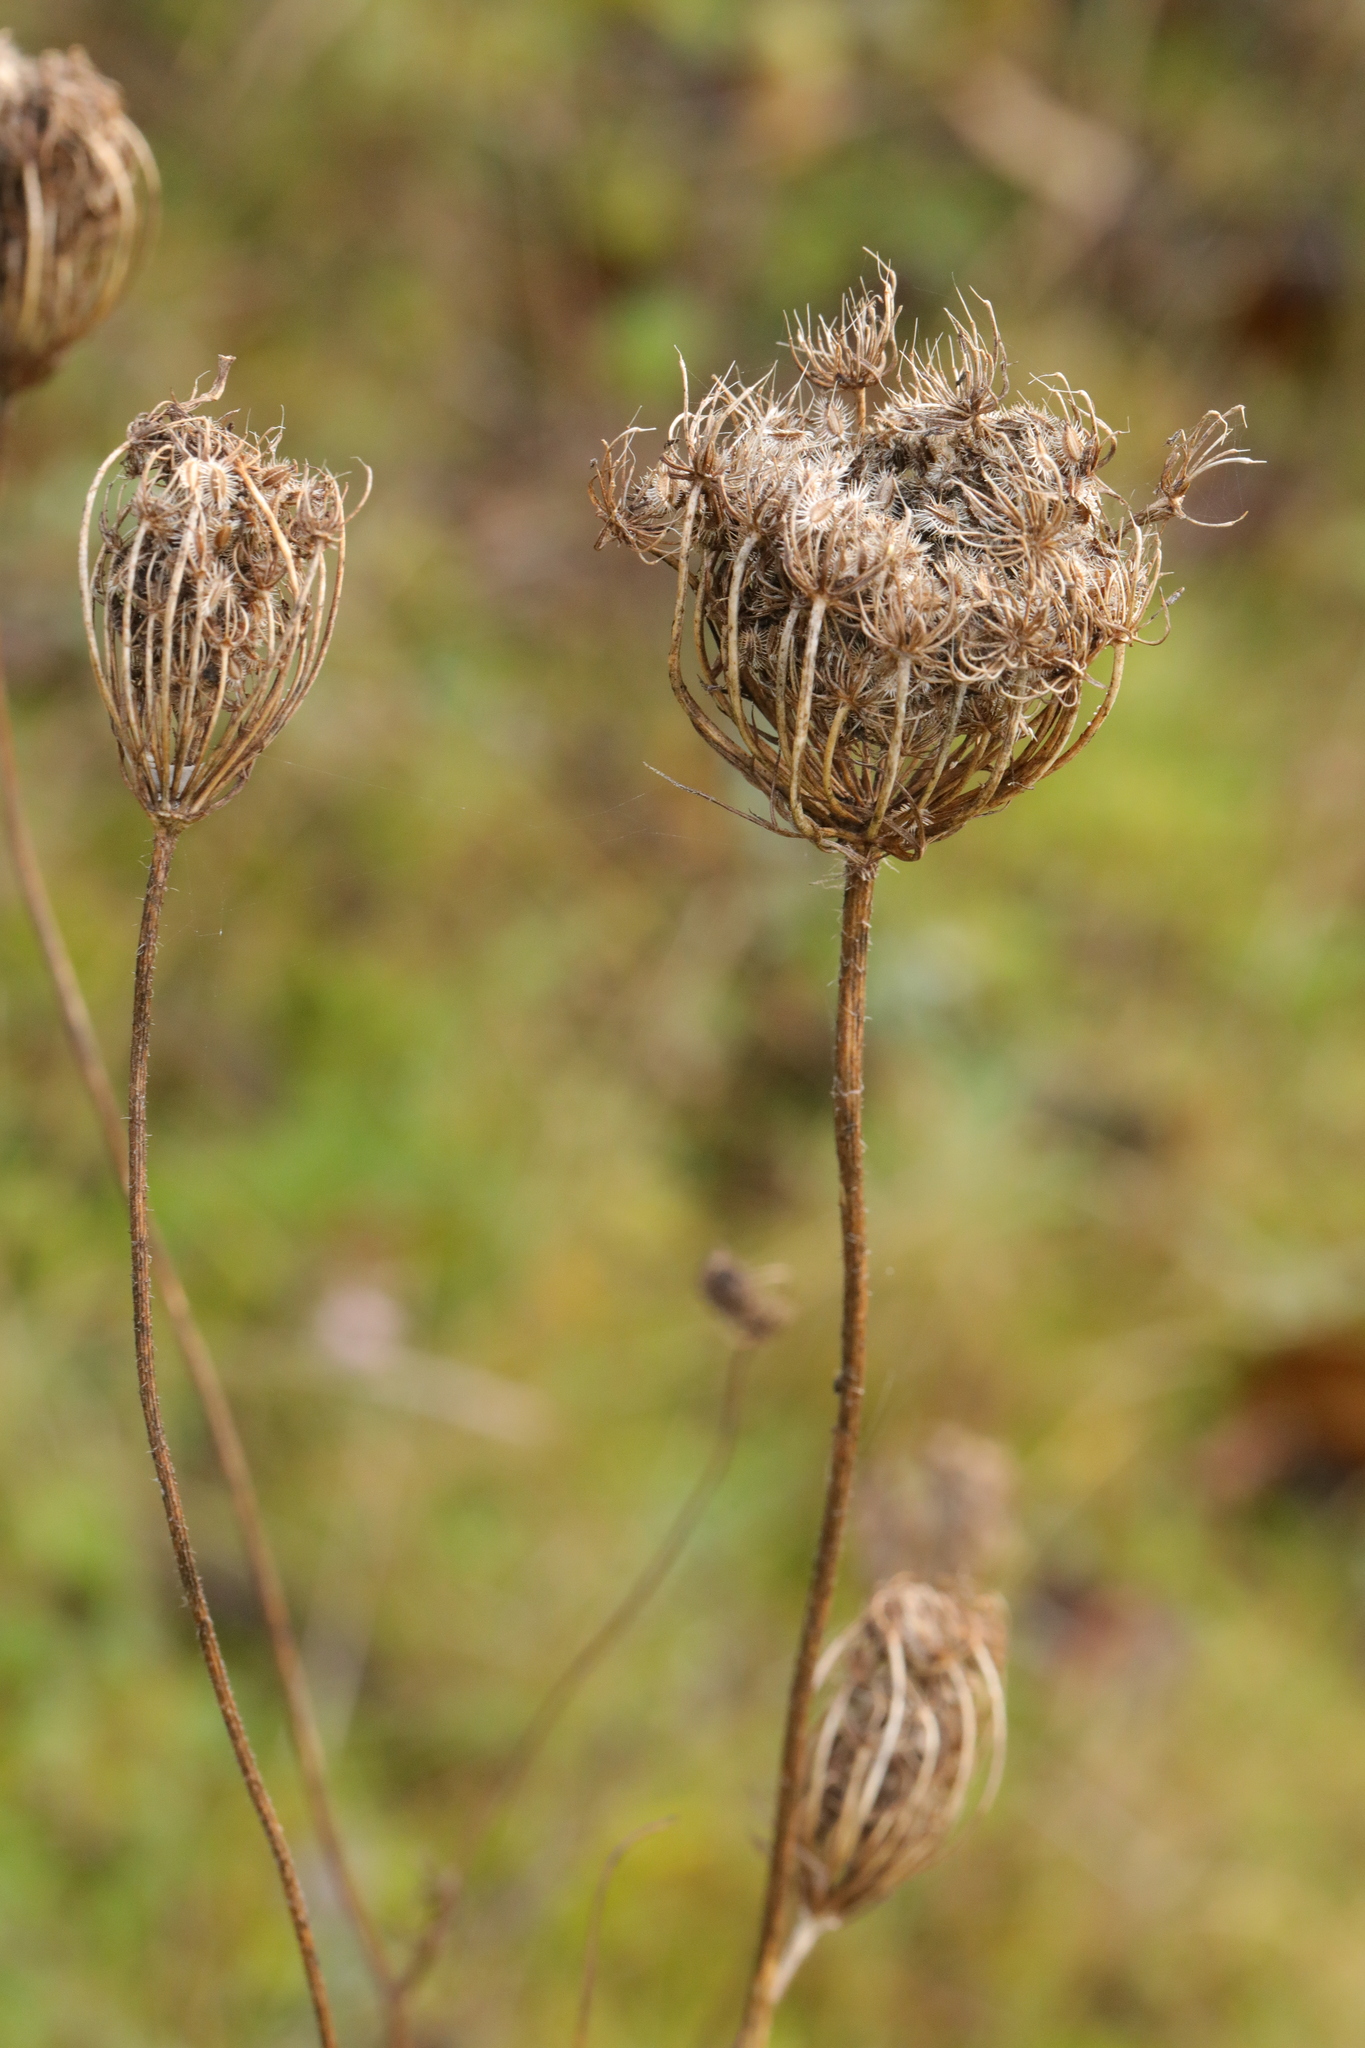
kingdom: Plantae
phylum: Tracheophyta
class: Magnoliopsida
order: Apiales
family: Apiaceae
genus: Daucus
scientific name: Daucus carota
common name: Wild carrot
